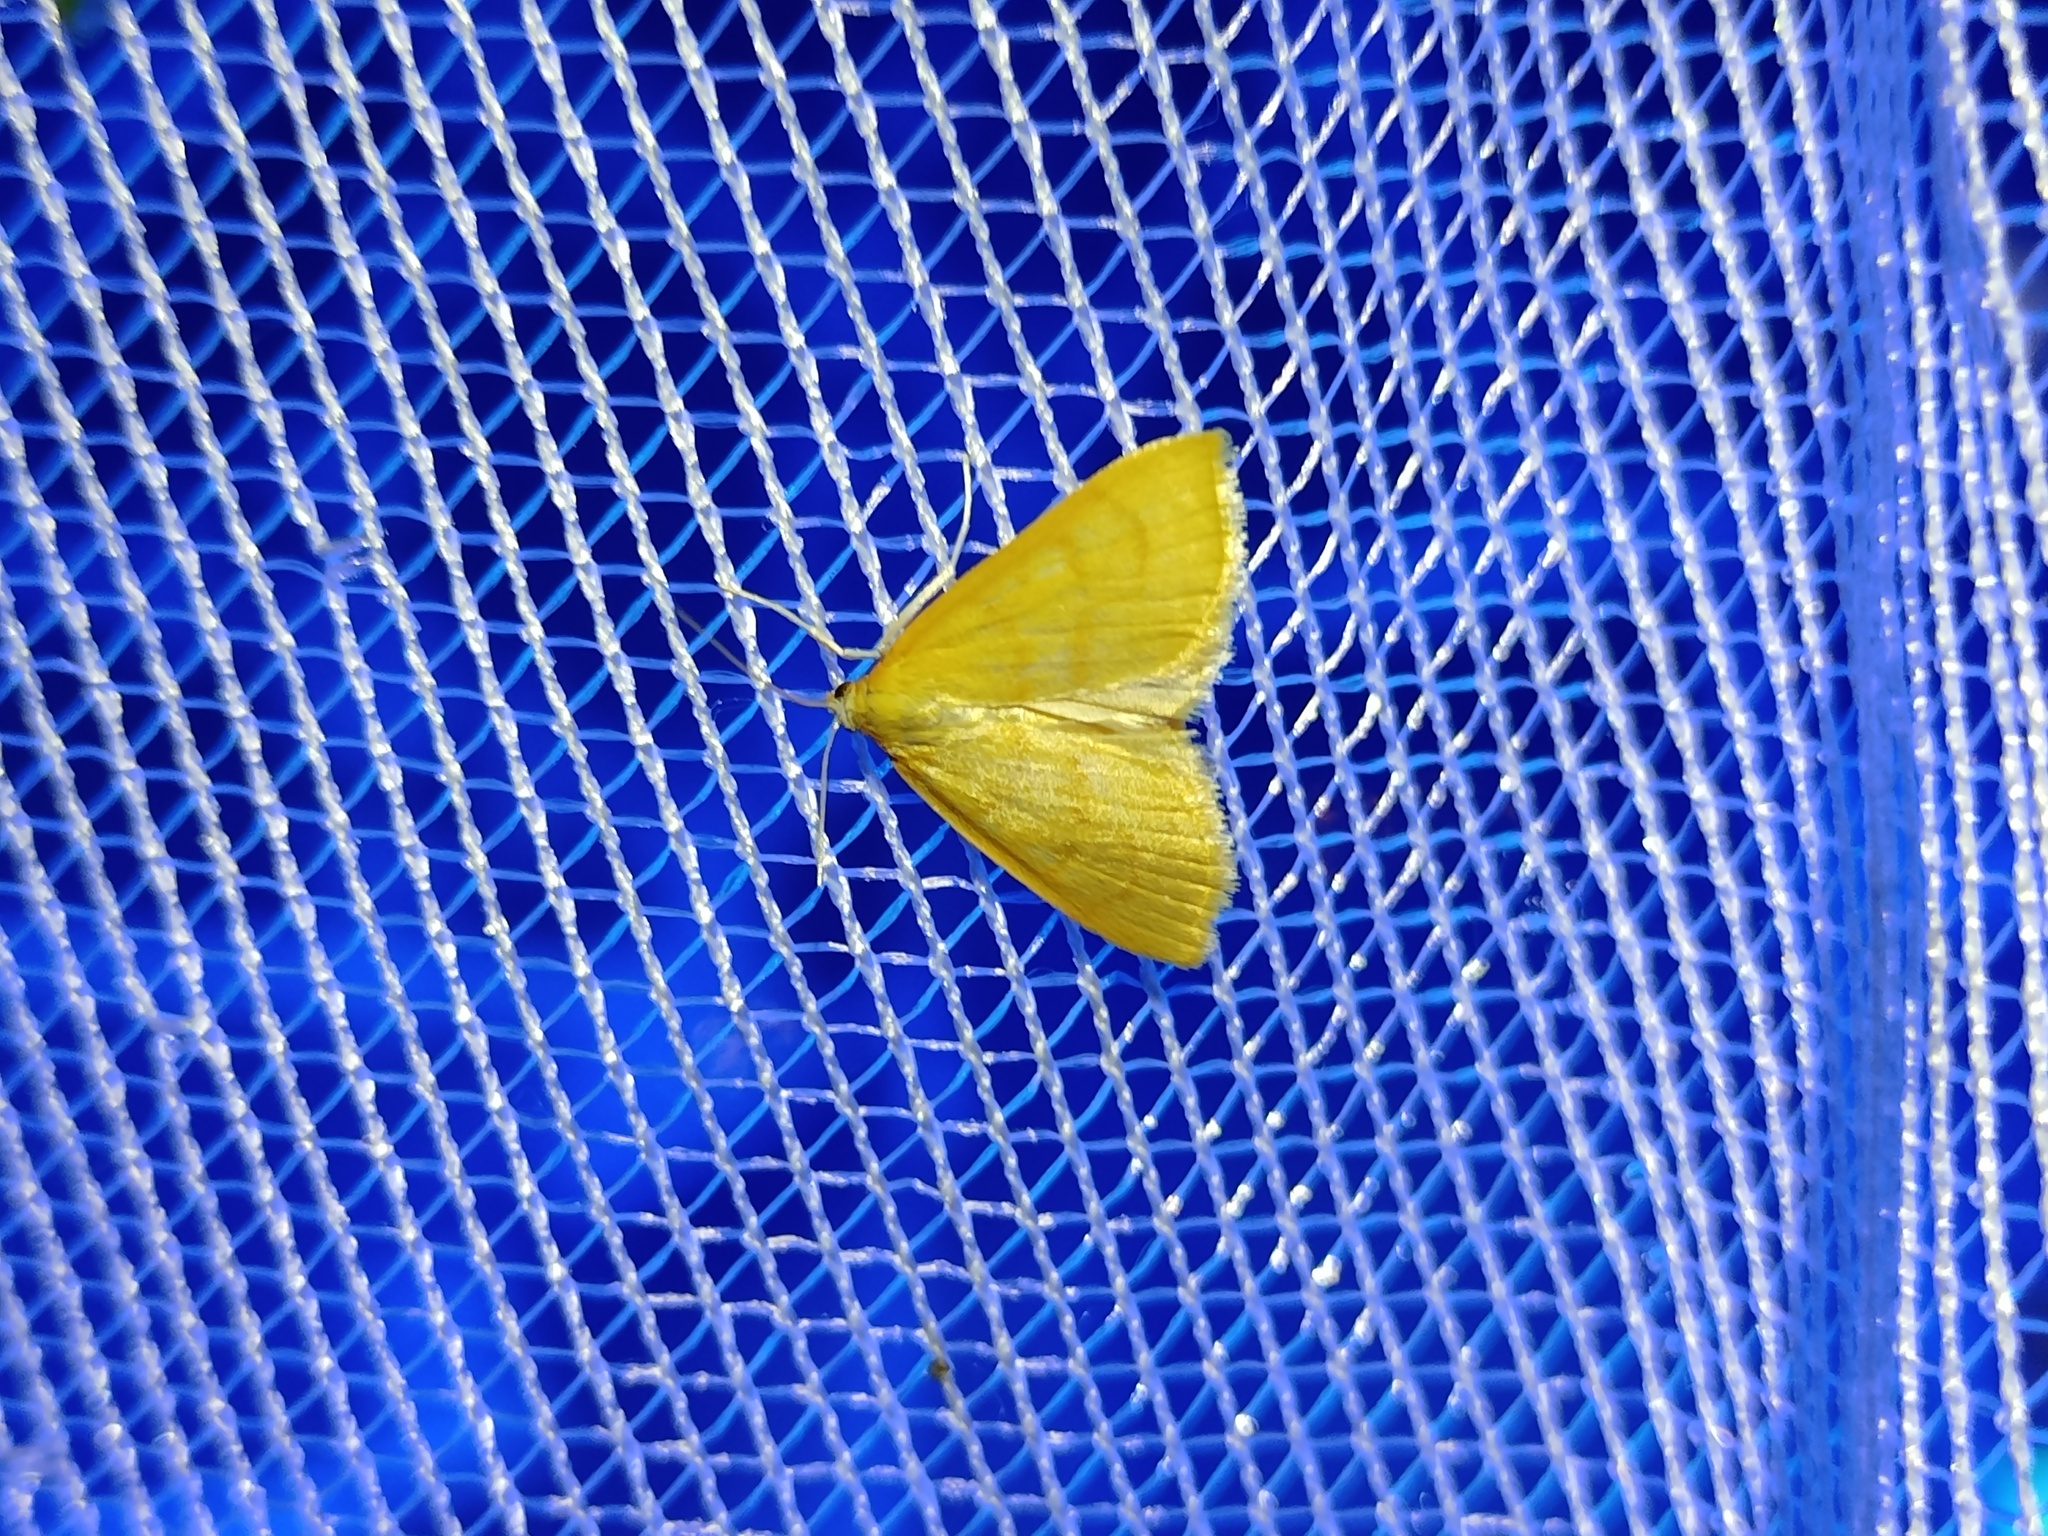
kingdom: Animalia
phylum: Arthropoda
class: Insecta
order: Lepidoptera
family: Crambidae
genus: Anania
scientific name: Anania crocealis
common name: Ochreous pearl
